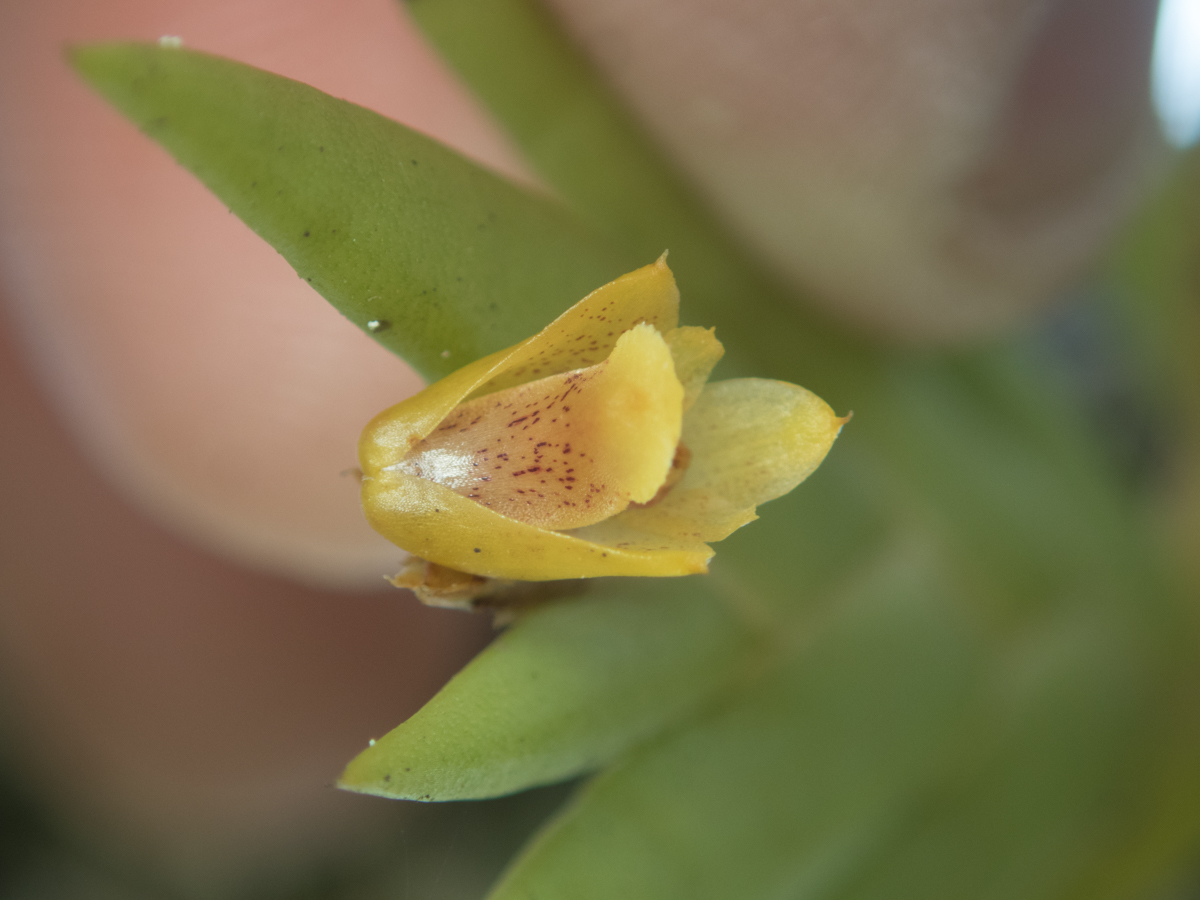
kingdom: Plantae
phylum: Tracheophyta
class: Liliopsida
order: Asparagales
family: Orchidaceae
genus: Oxystophyllum
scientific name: Oxystophyllum carnosum
